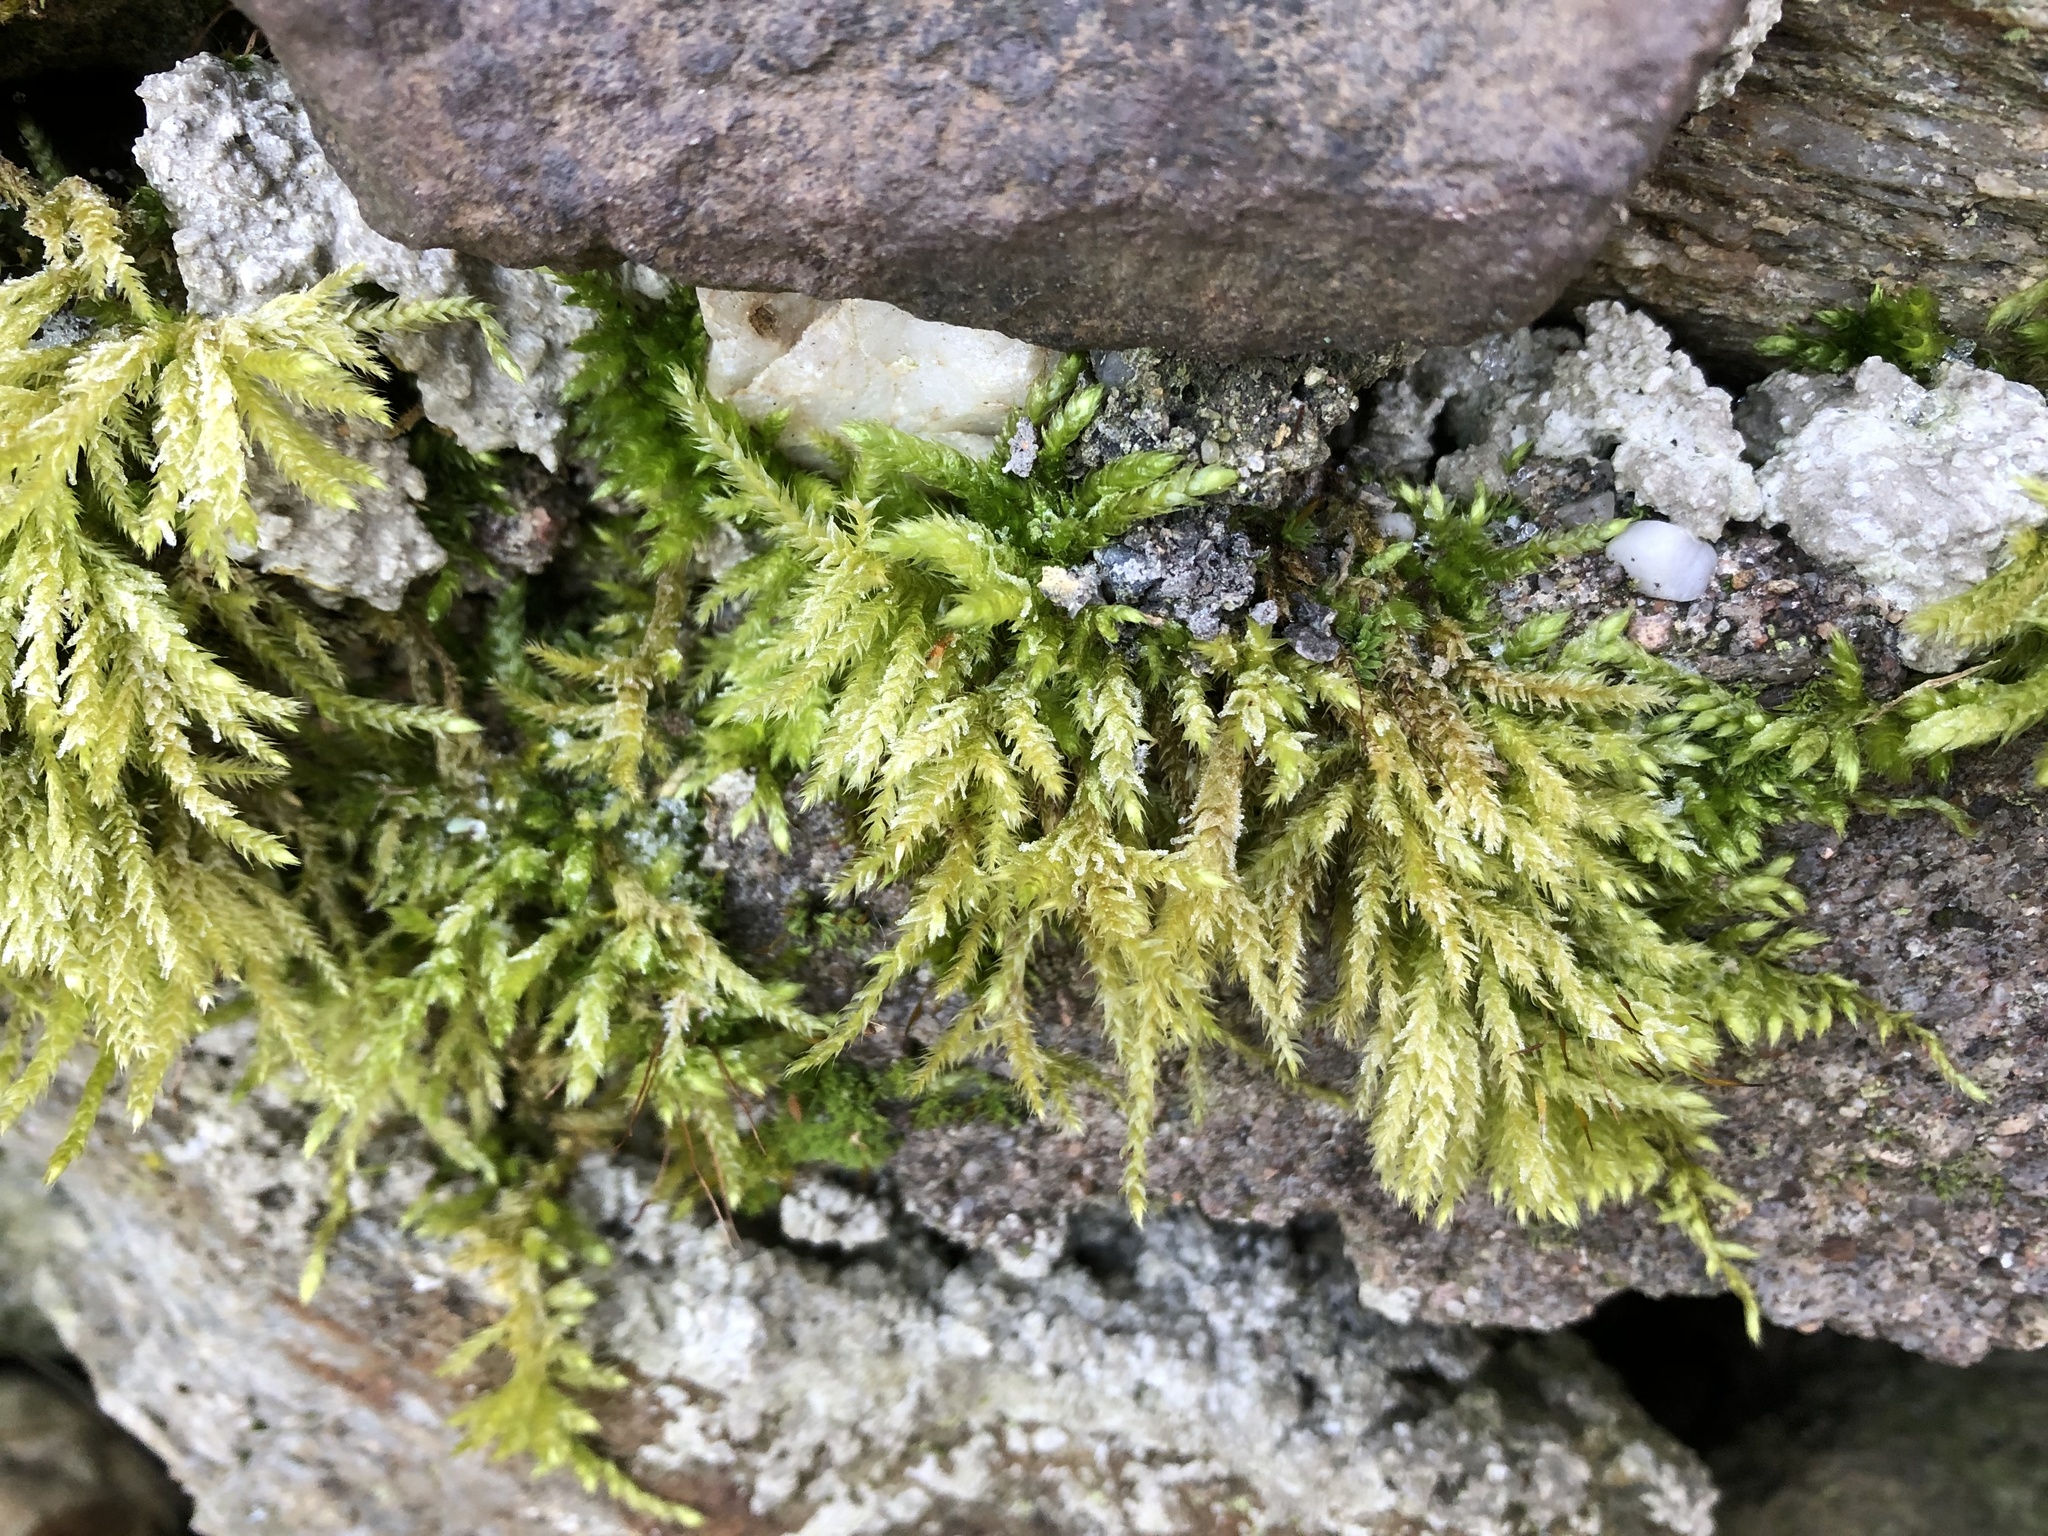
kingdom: Plantae
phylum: Bryophyta
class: Bryopsida
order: Hypnales
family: Brachytheciaceae
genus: Brachythecium
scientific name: Brachythecium rutabulum
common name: Rough-stalked feather-moss
